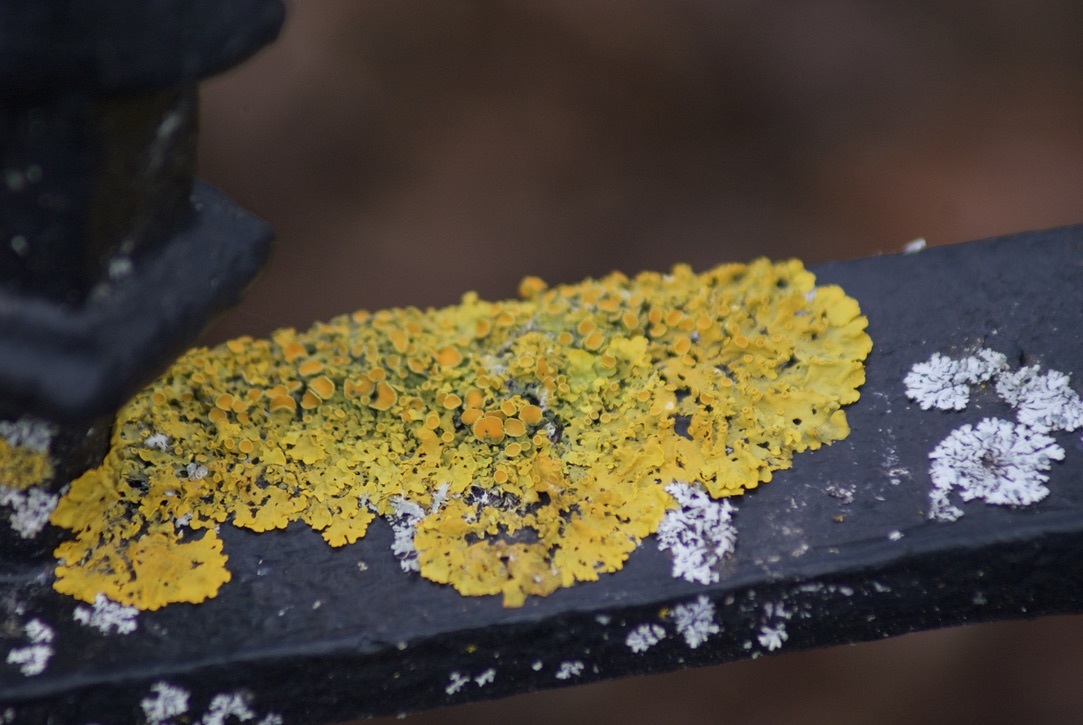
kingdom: Fungi
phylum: Ascomycota
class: Lecanoromycetes
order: Teloschistales
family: Teloschistaceae
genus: Xanthoria
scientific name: Xanthoria parietina
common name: Common orange lichen
